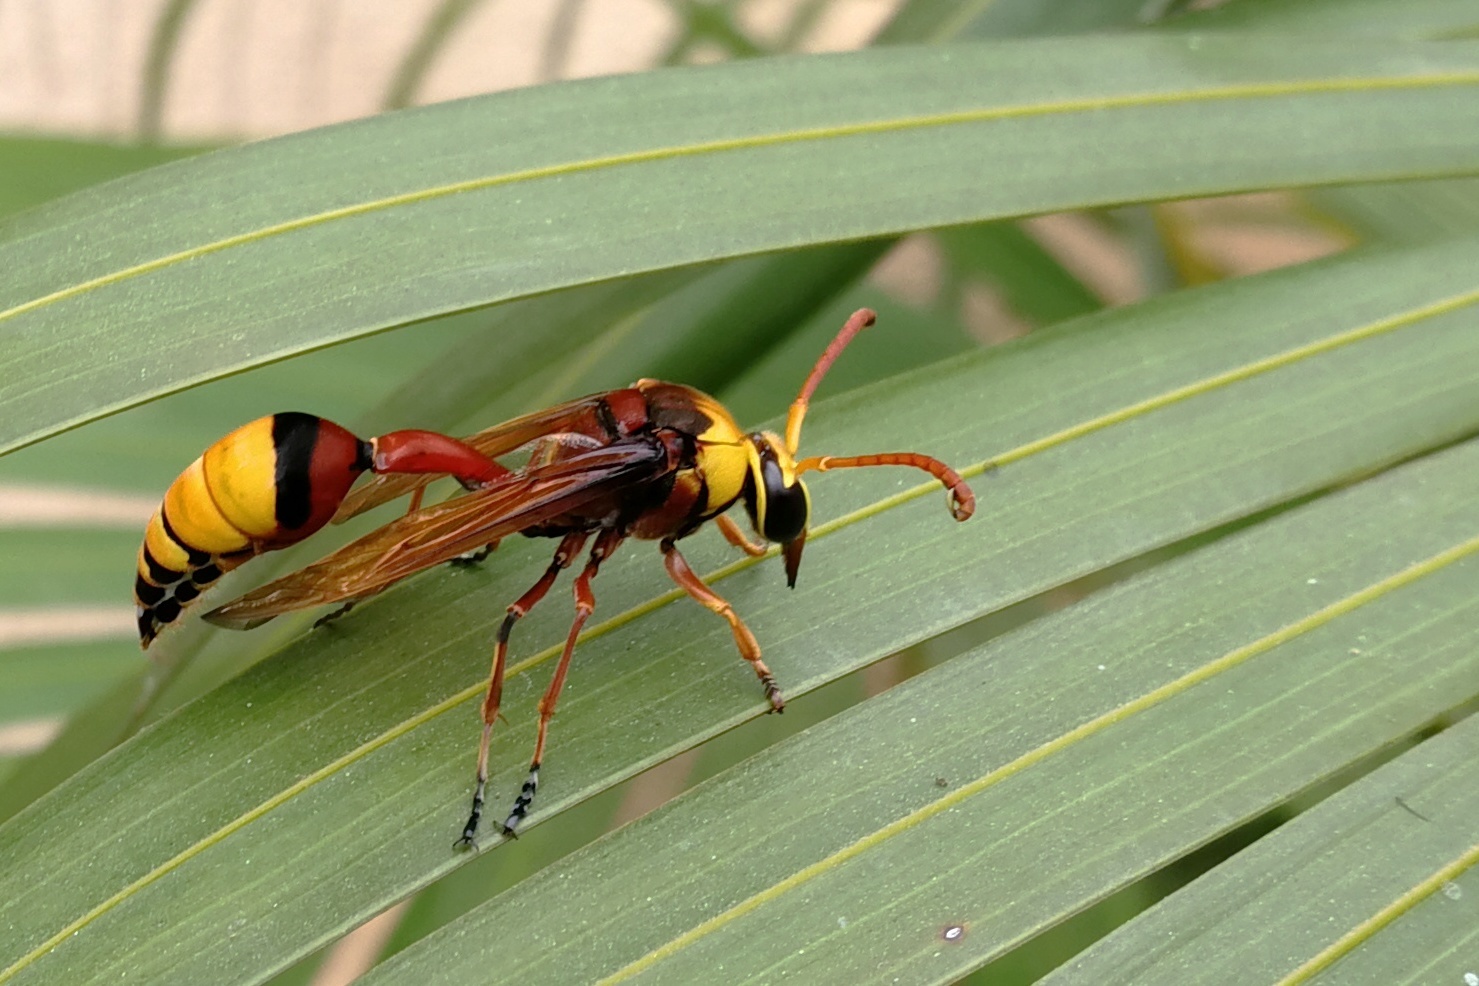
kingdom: Animalia
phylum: Arthropoda
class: Insecta
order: Hymenoptera
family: Eumenidae
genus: Delta
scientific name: Delta pyriforme
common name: Wasp
